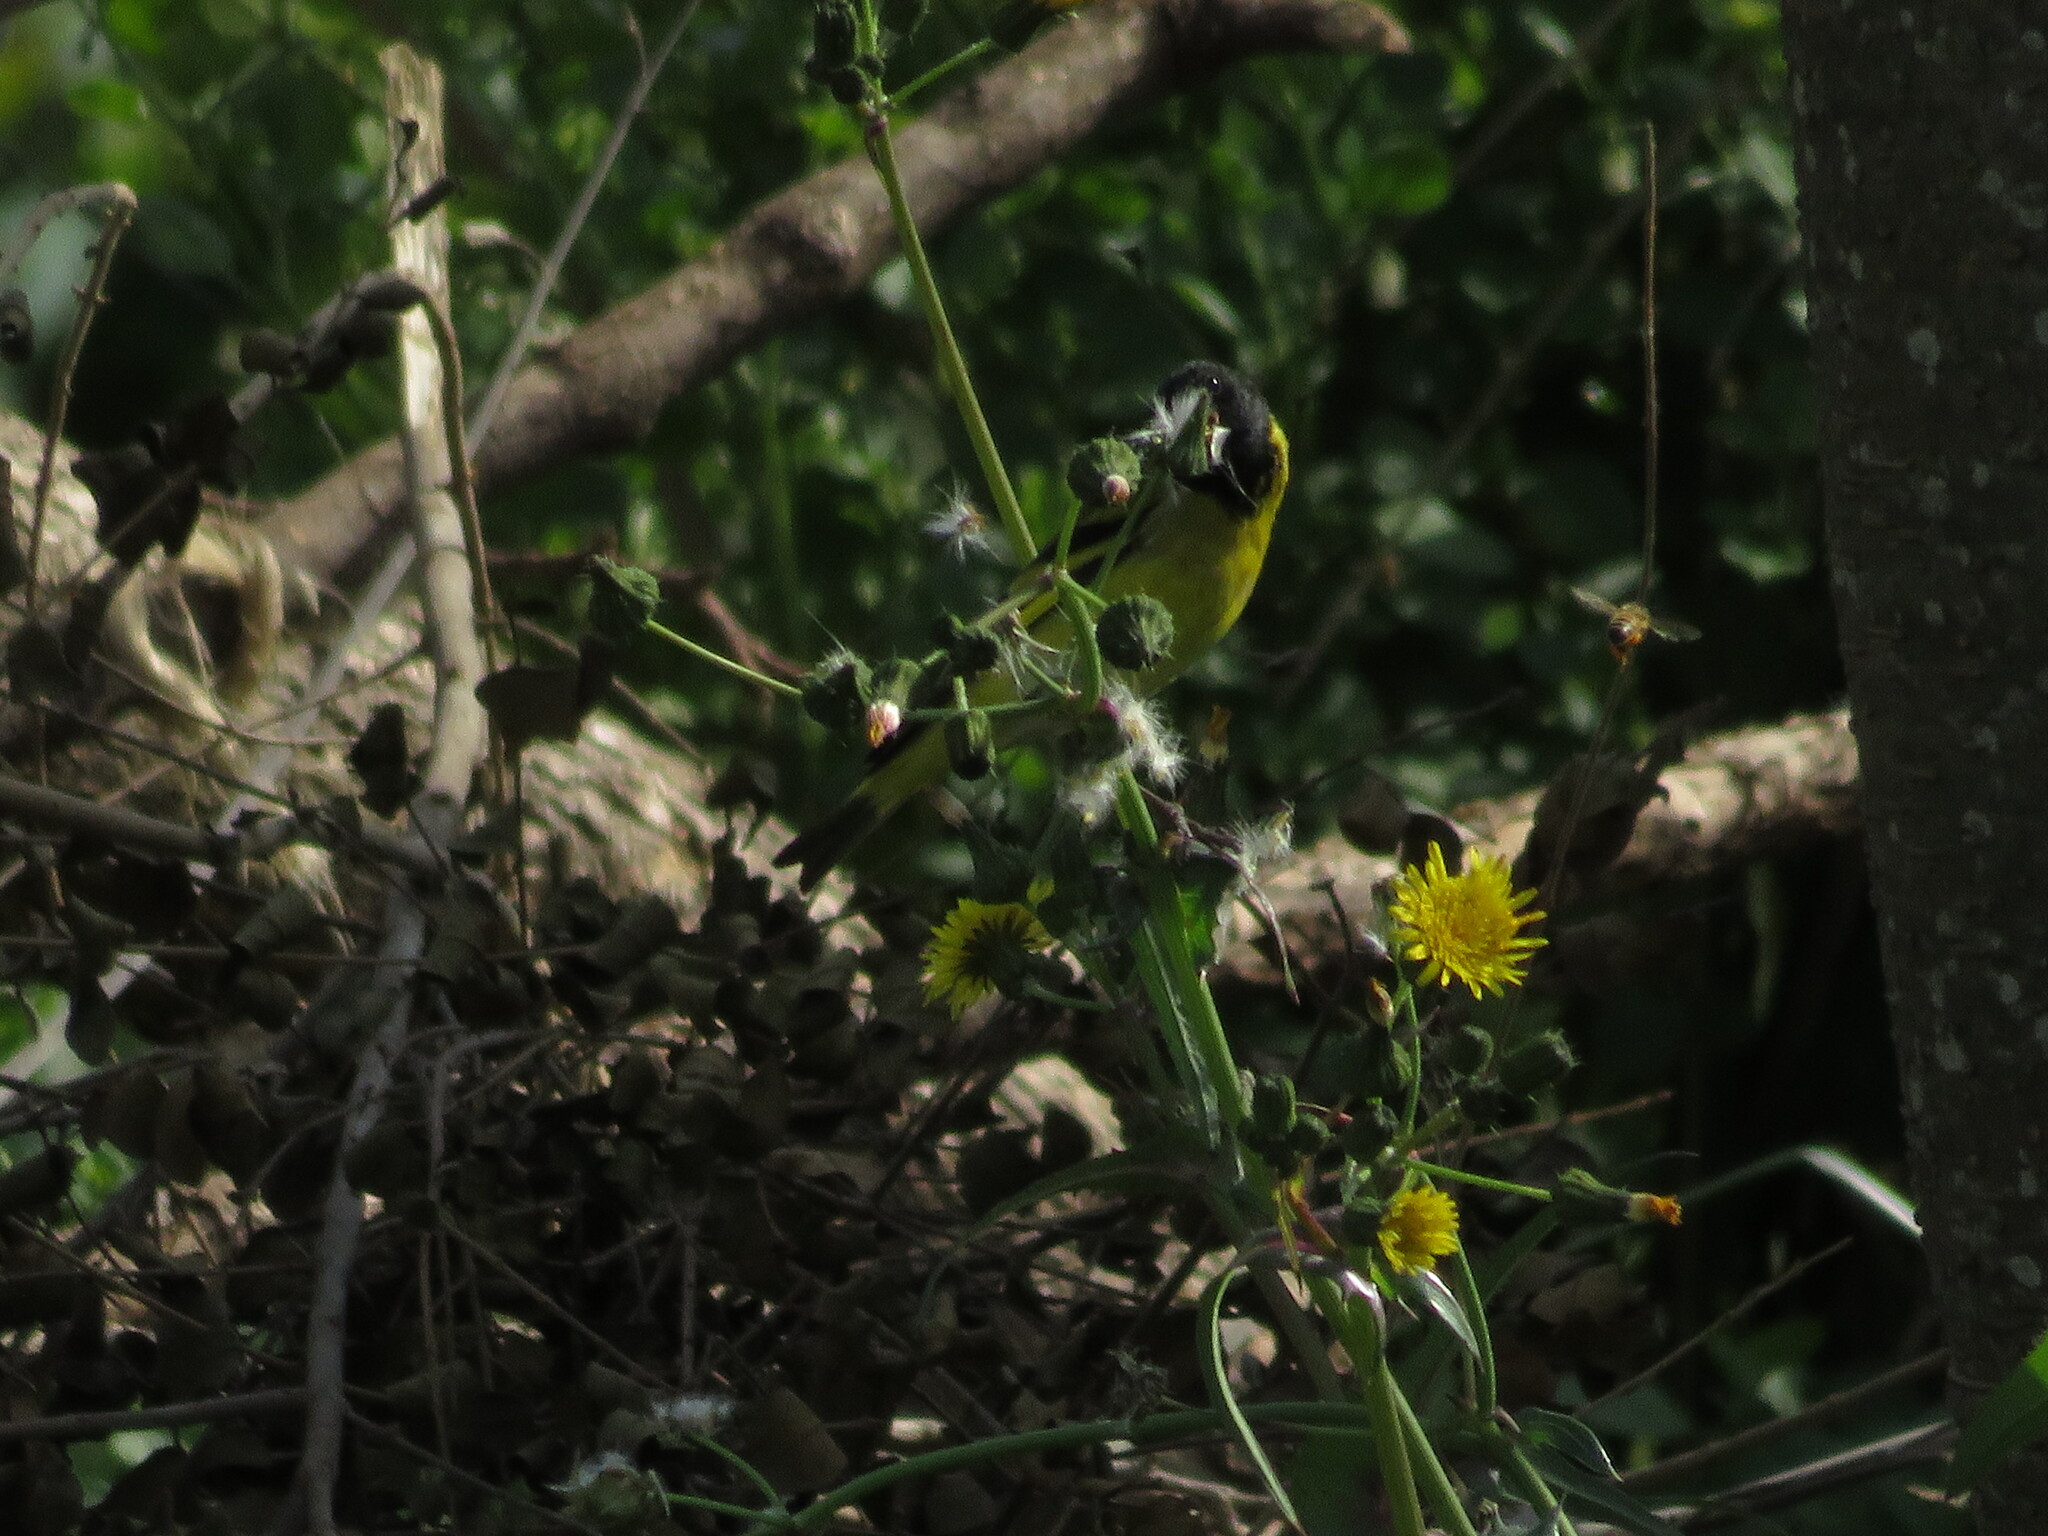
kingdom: Animalia
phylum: Chordata
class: Aves
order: Passeriformes
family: Fringillidae
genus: Spinus
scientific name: Spinus magellanicus
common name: Hooded siskin
